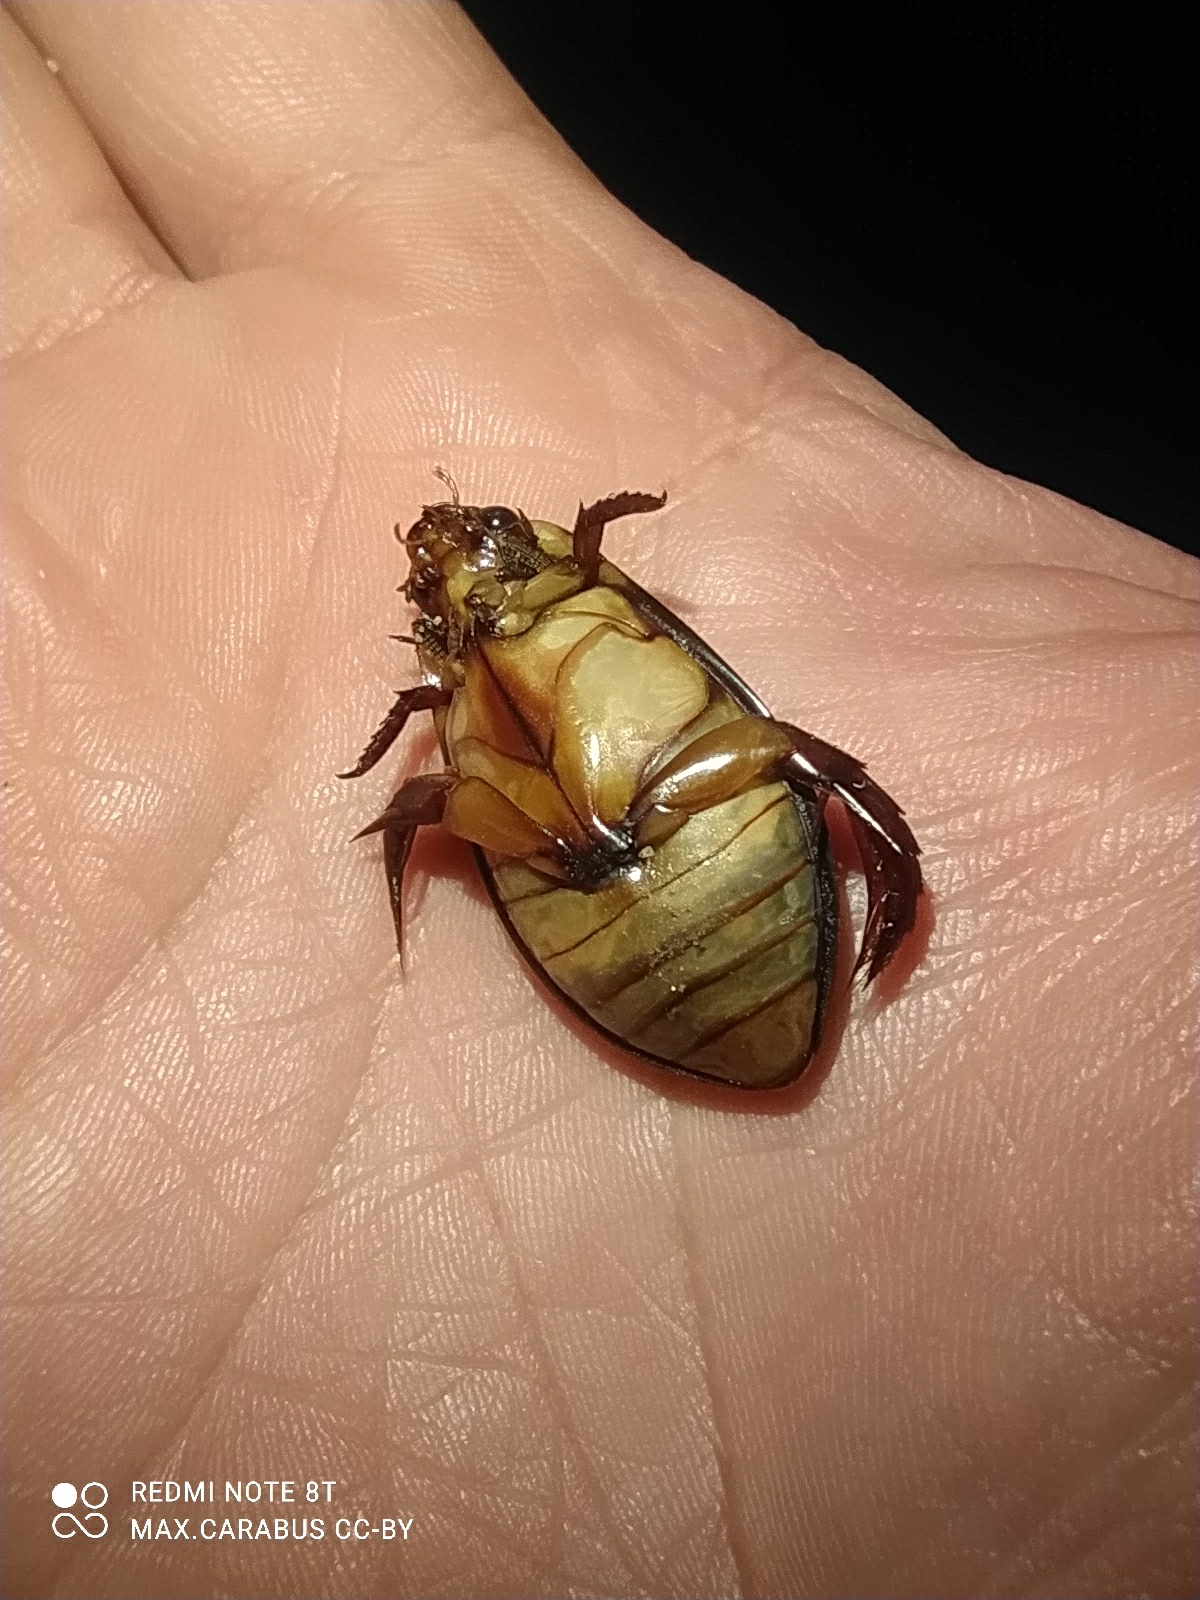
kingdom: Animalia
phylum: Arthropoda
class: Insecta
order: Coleoptera
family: Dytiscidae
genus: Cybister
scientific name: Cybister lateralimarginalis
